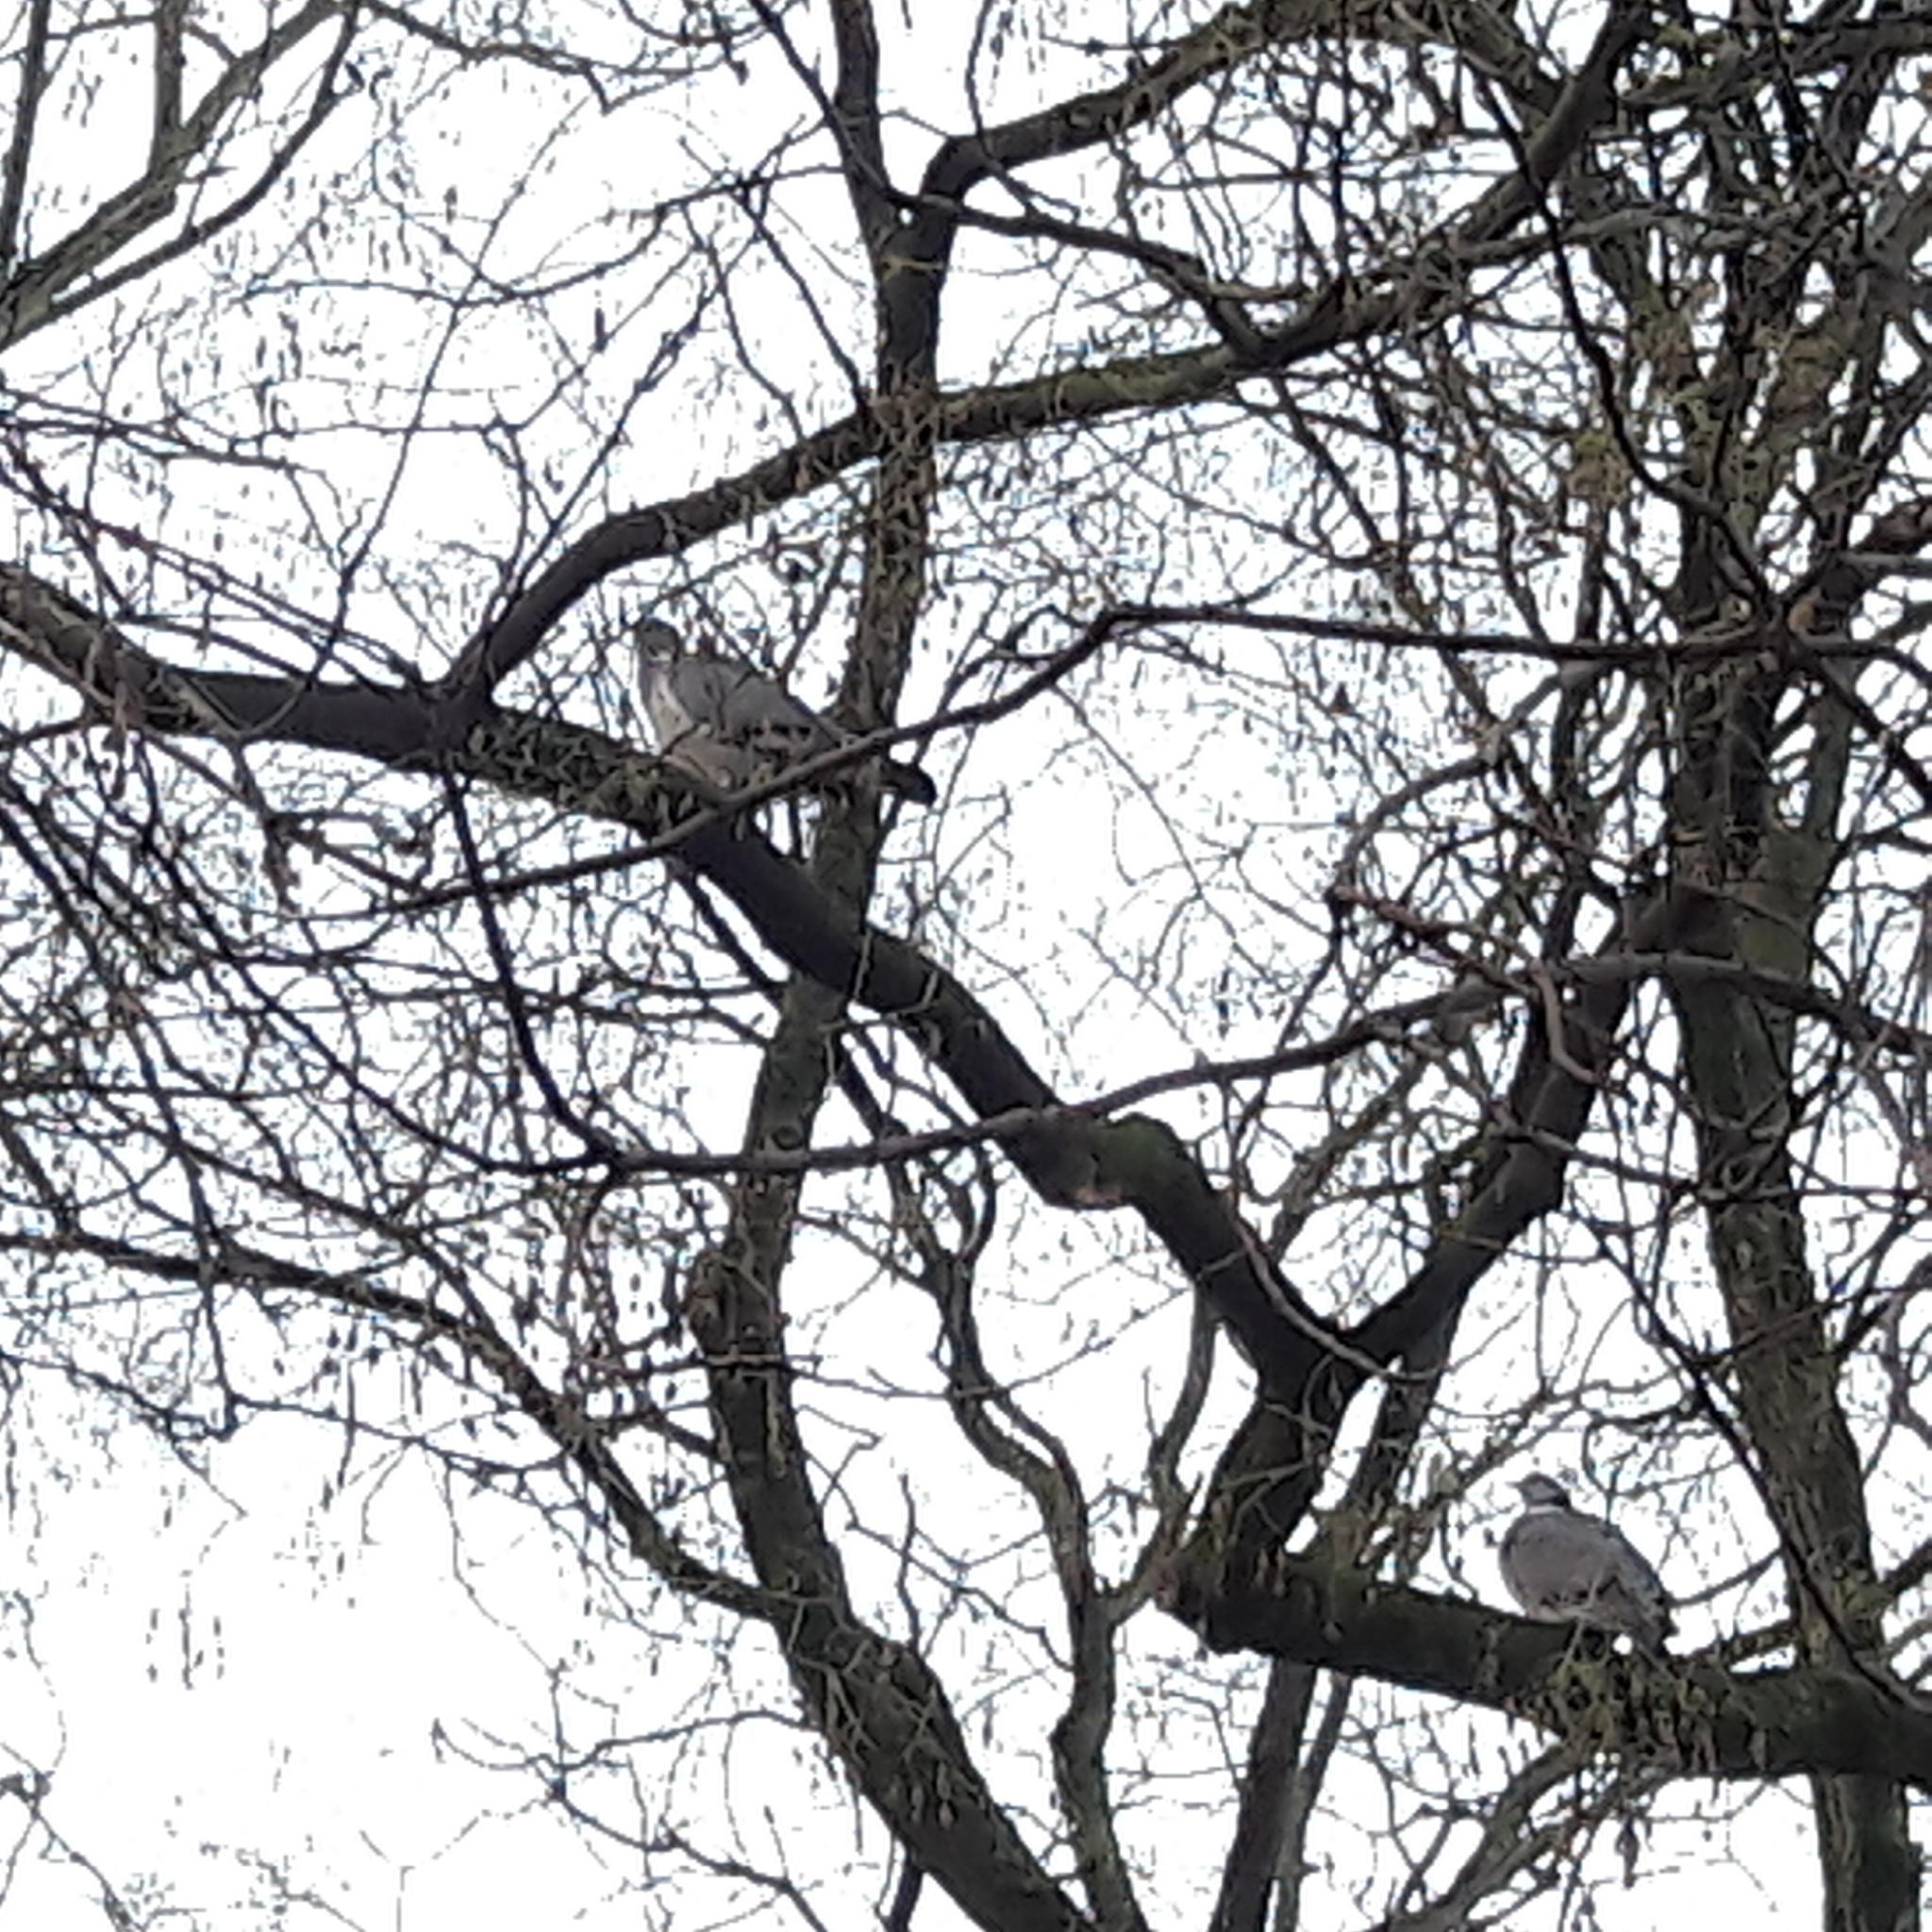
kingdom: Animalia
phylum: Chordata
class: Aves
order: Columbiformes
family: Columbidae
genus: Columba
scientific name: Columba palumbus
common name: Common wood pigeon
